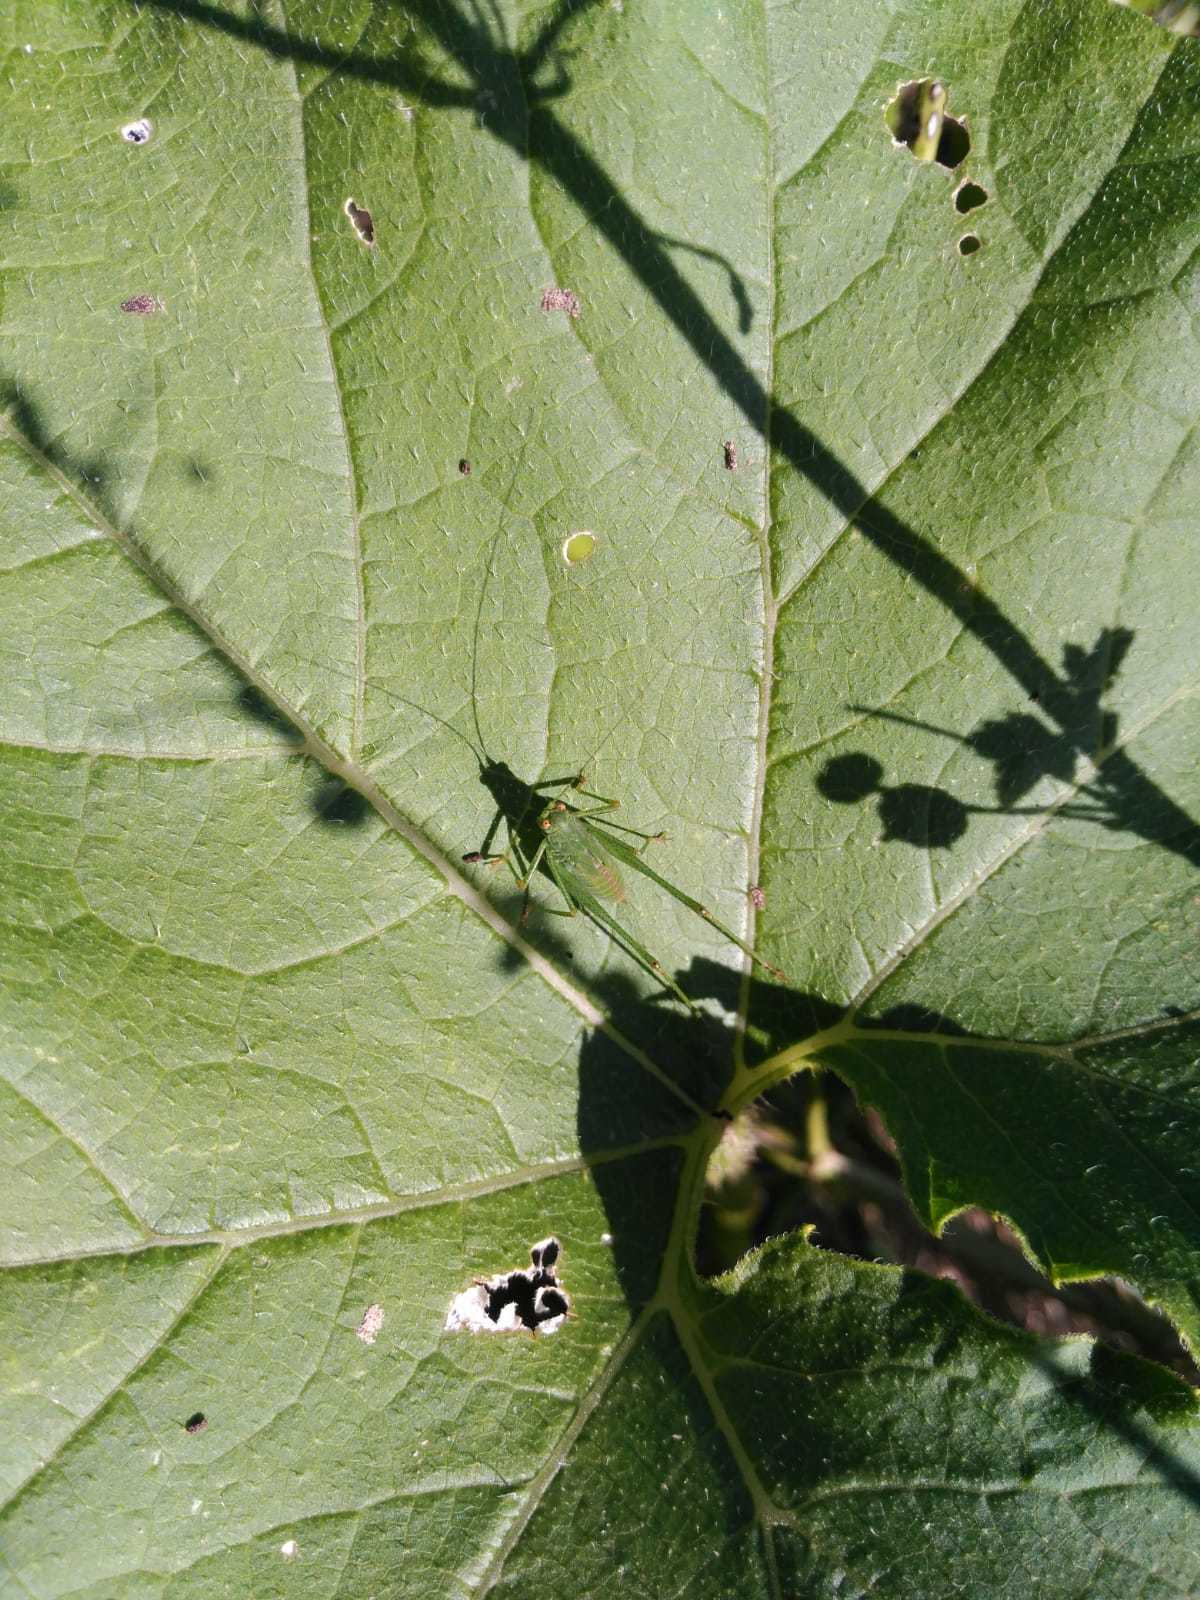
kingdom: Animalia
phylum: Arthropoda
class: Insecta
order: Orthoptera
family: Tettigoniidae
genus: Phaneroptera
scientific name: Phaneroptera nana
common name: Southern sickle bush-cricket
